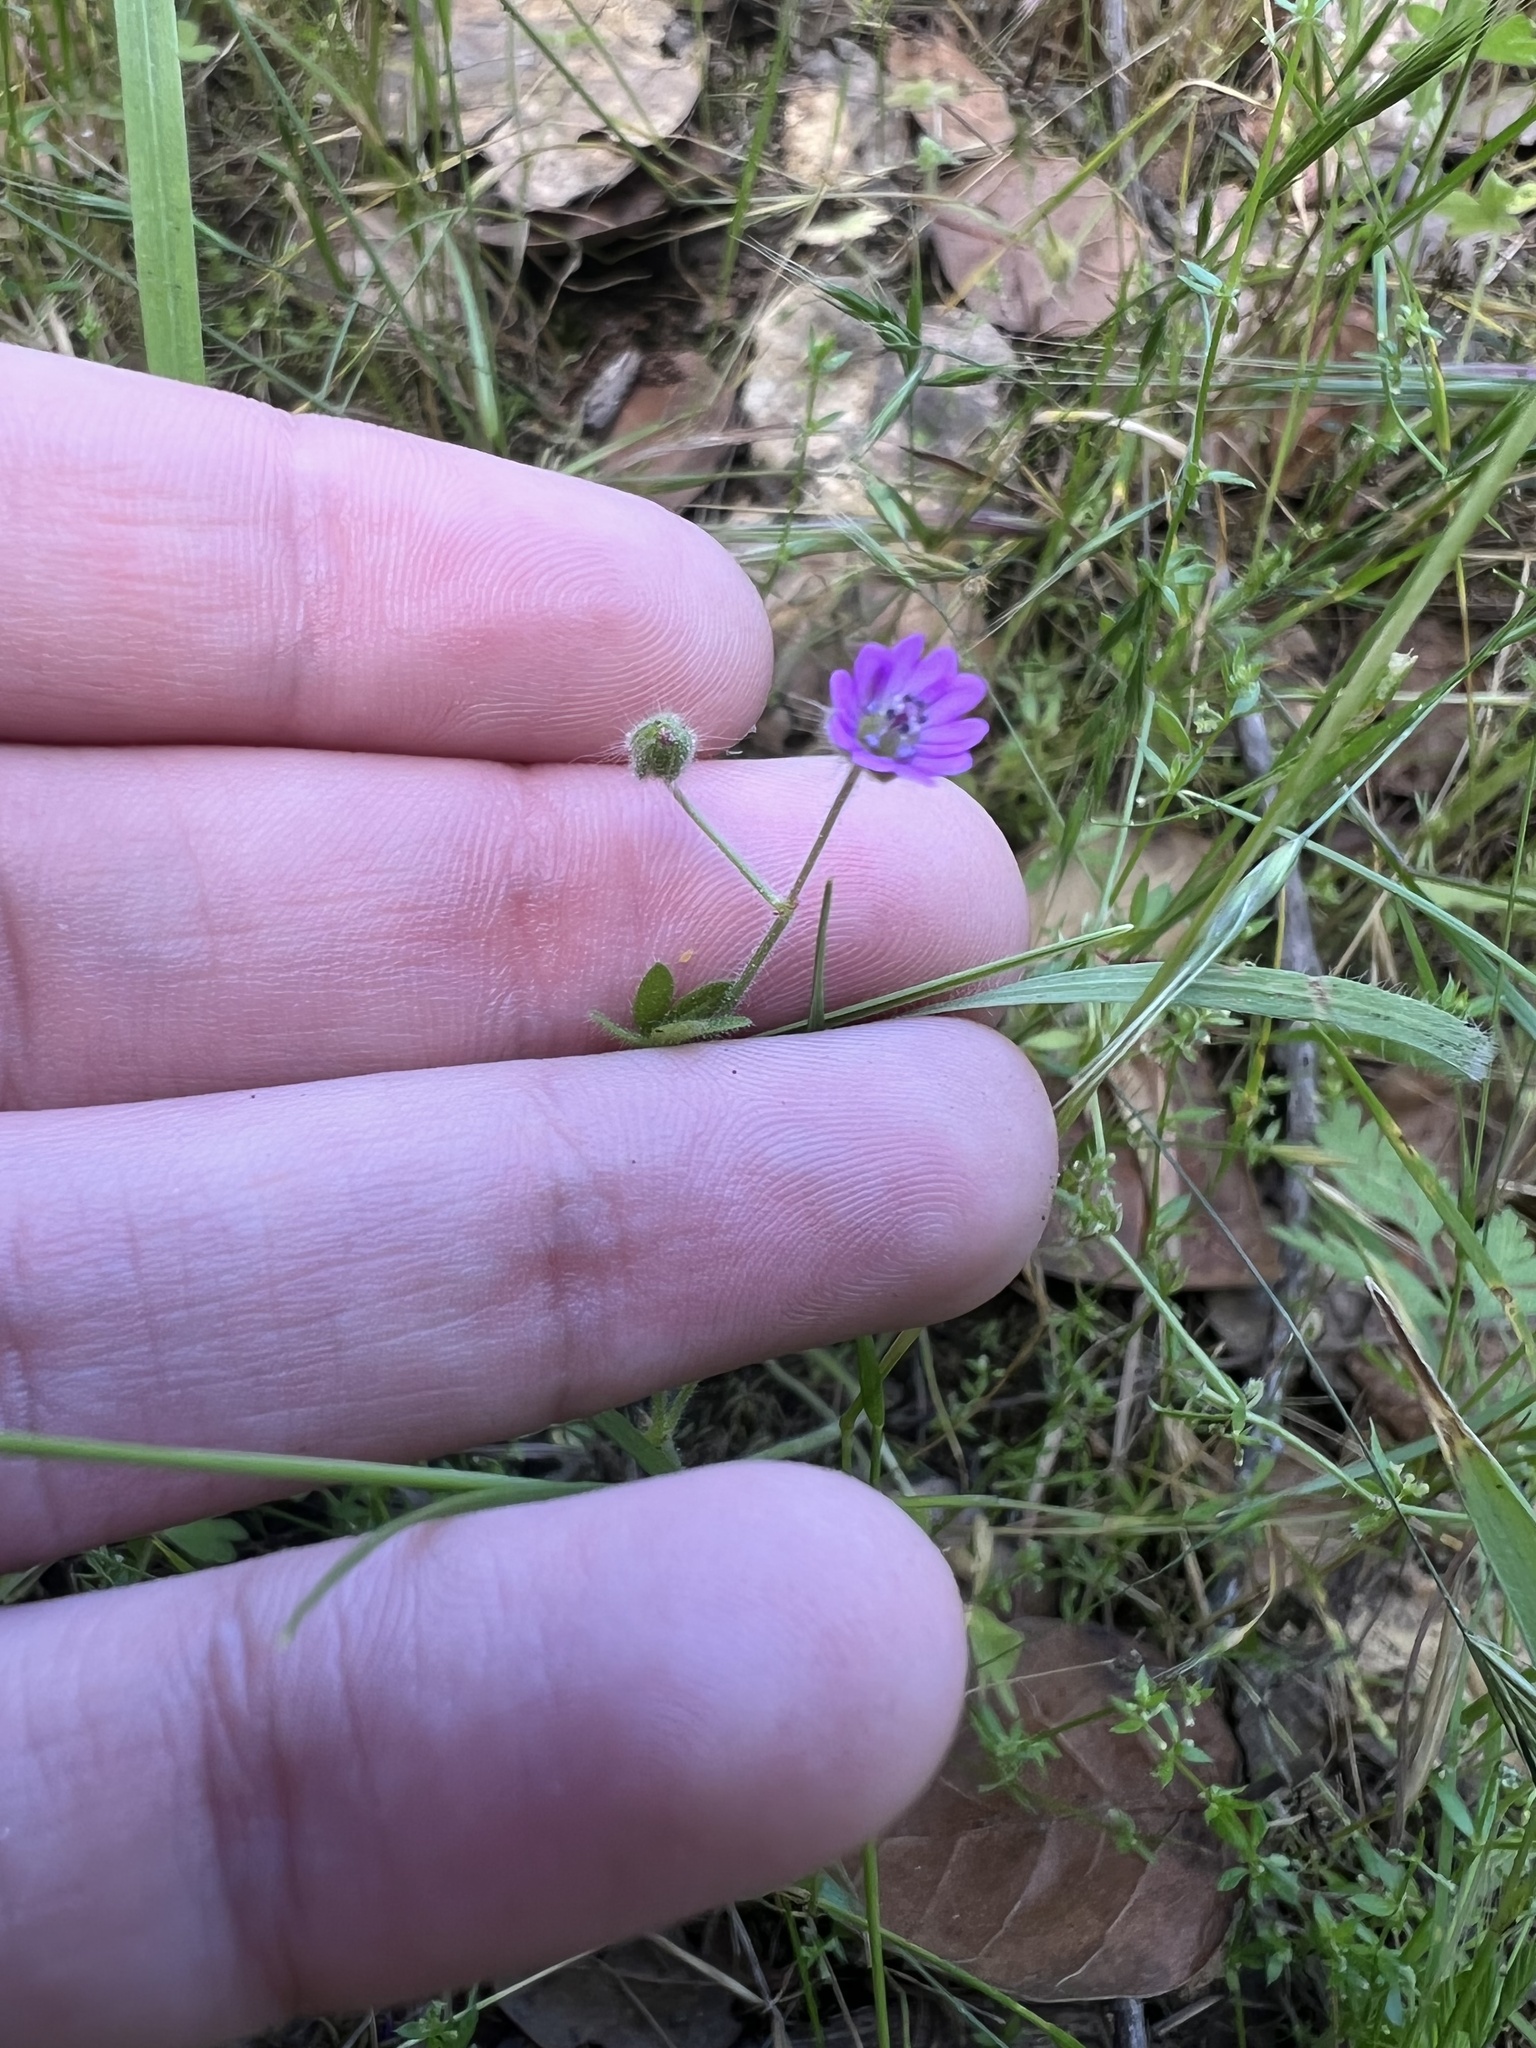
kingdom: Plantae
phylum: Tracheophyta
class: Magnoliopsida
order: Geraniales
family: Geraniaceae
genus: Geranium
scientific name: Geranium molle
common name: Dove's-foot crane's-bill
